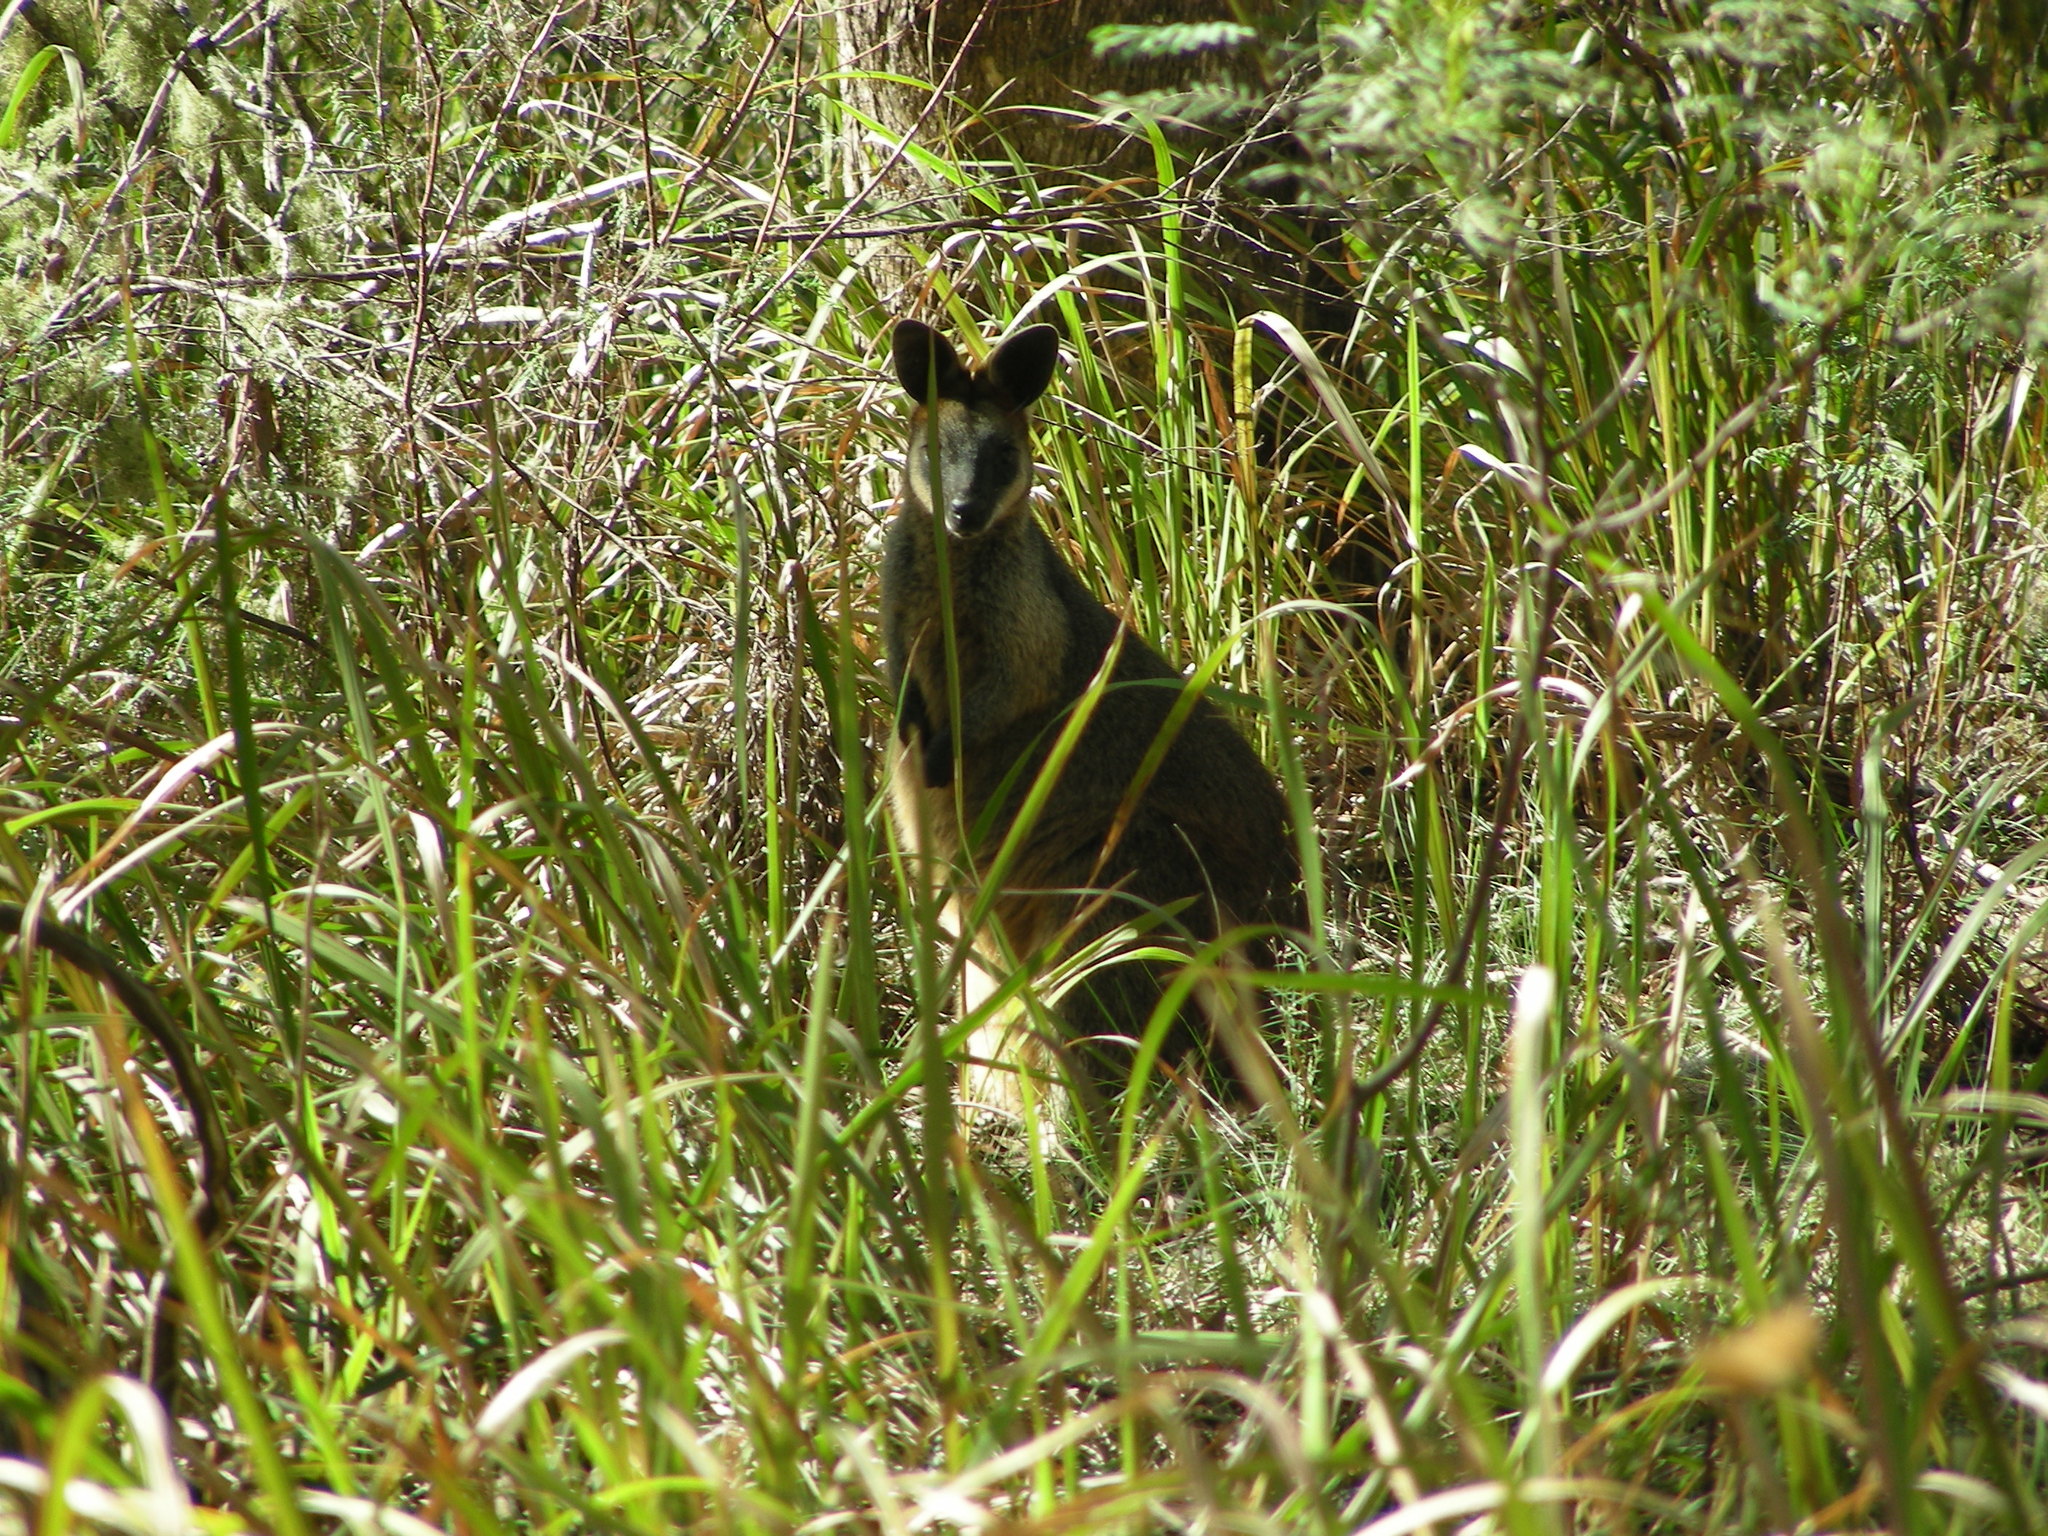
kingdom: Animalia
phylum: Chordata
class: Mammalia
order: Diprotodontia
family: Macropodidae
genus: Wallabia
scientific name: Wallabia bicolor
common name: Swamp wallaby
